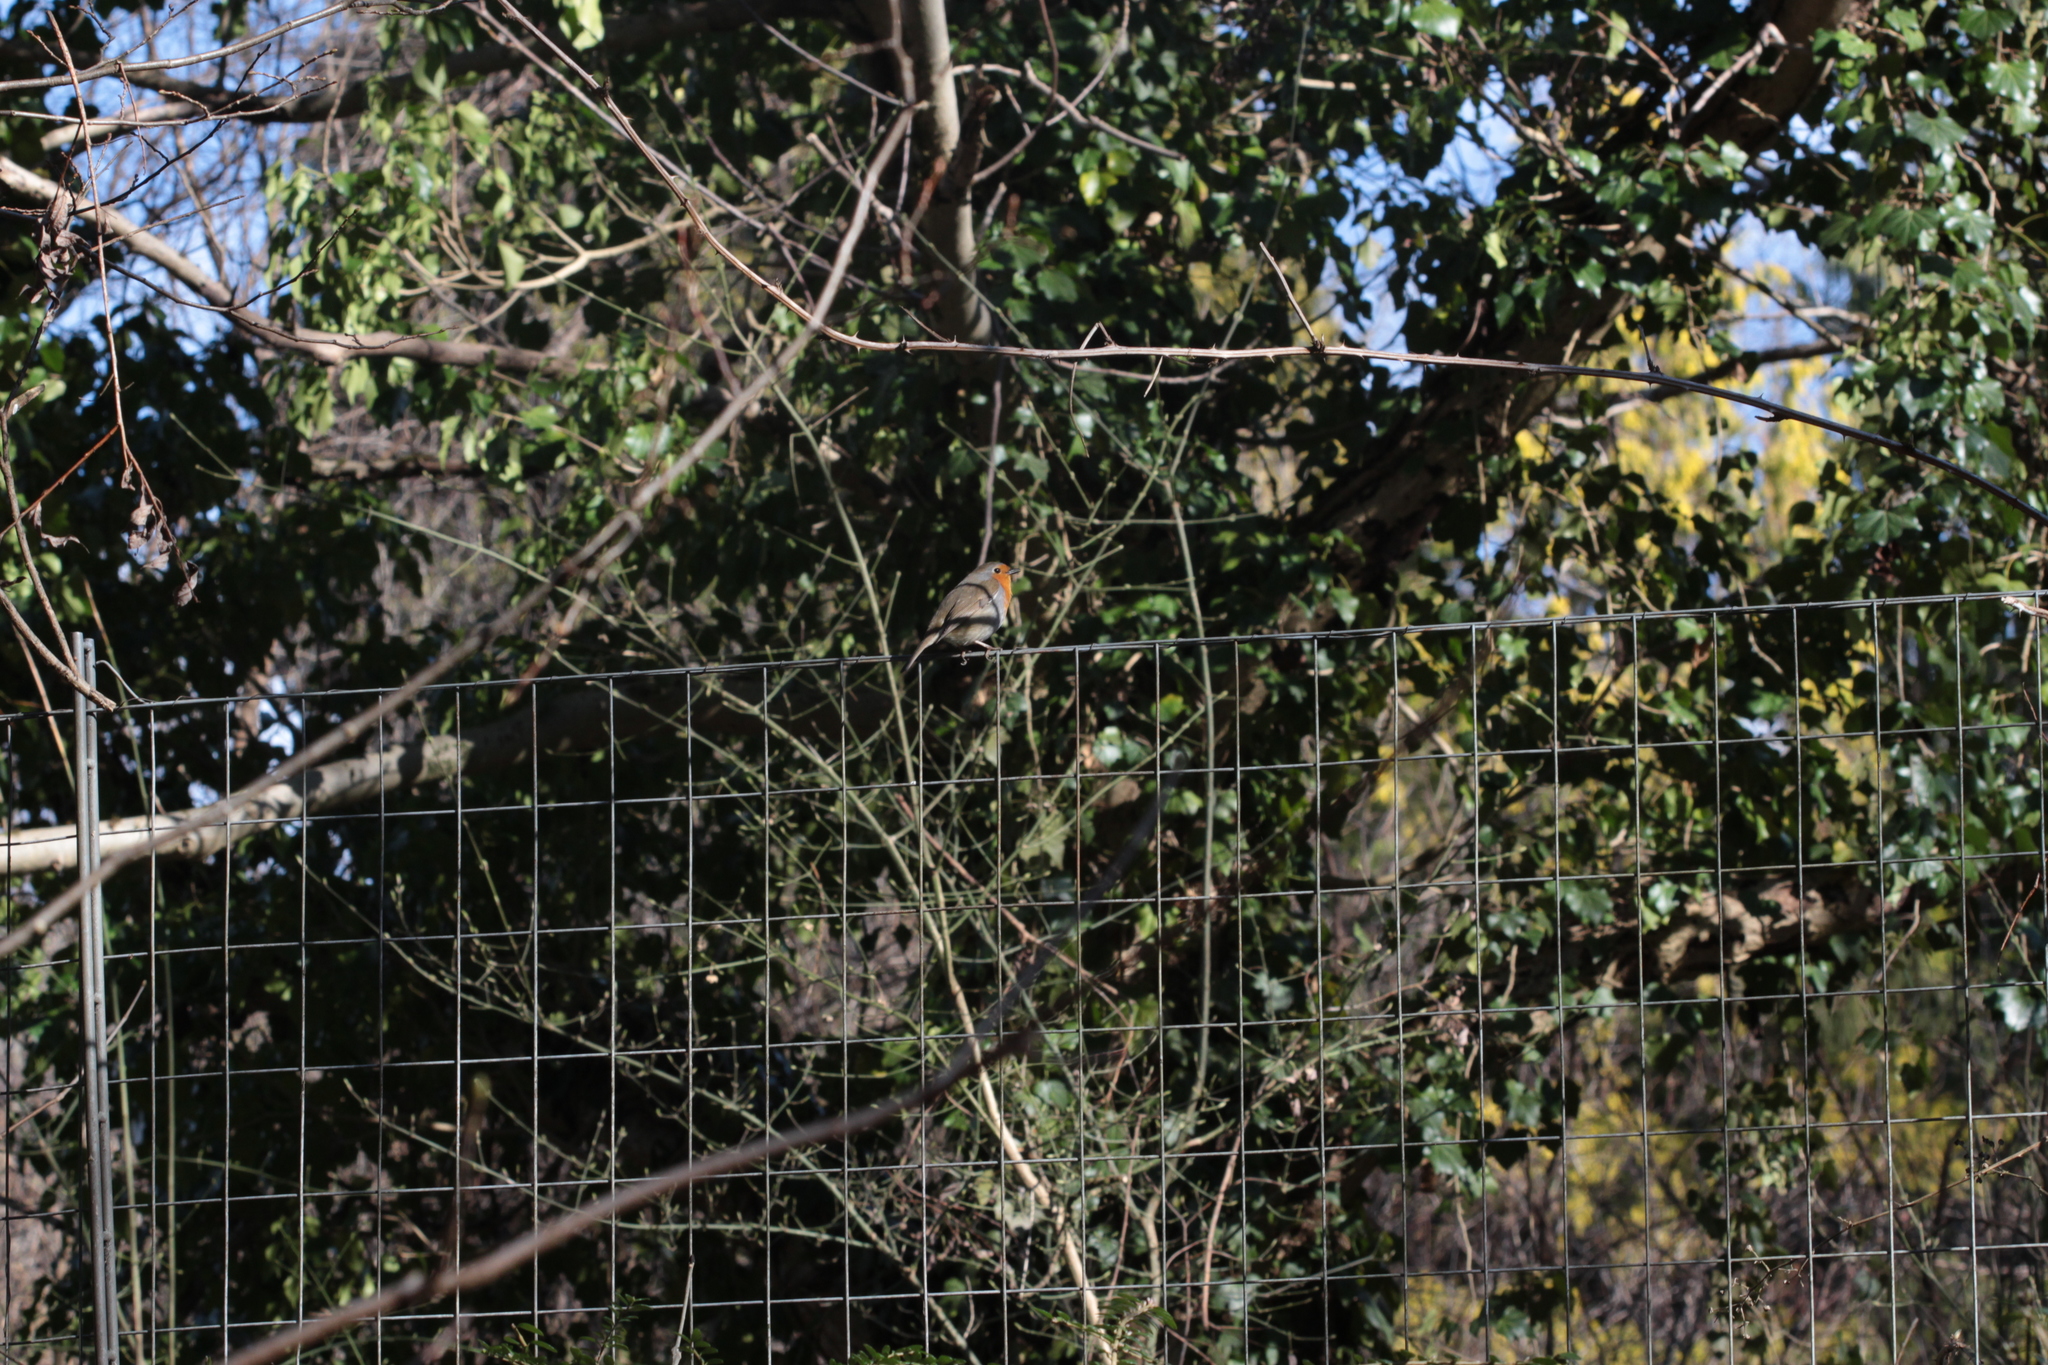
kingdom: Animalia
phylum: Chordata
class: Aves
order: Passeriformes
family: Muscicapidae
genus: Erithacus
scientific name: Erithacus rubecula
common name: European robin
